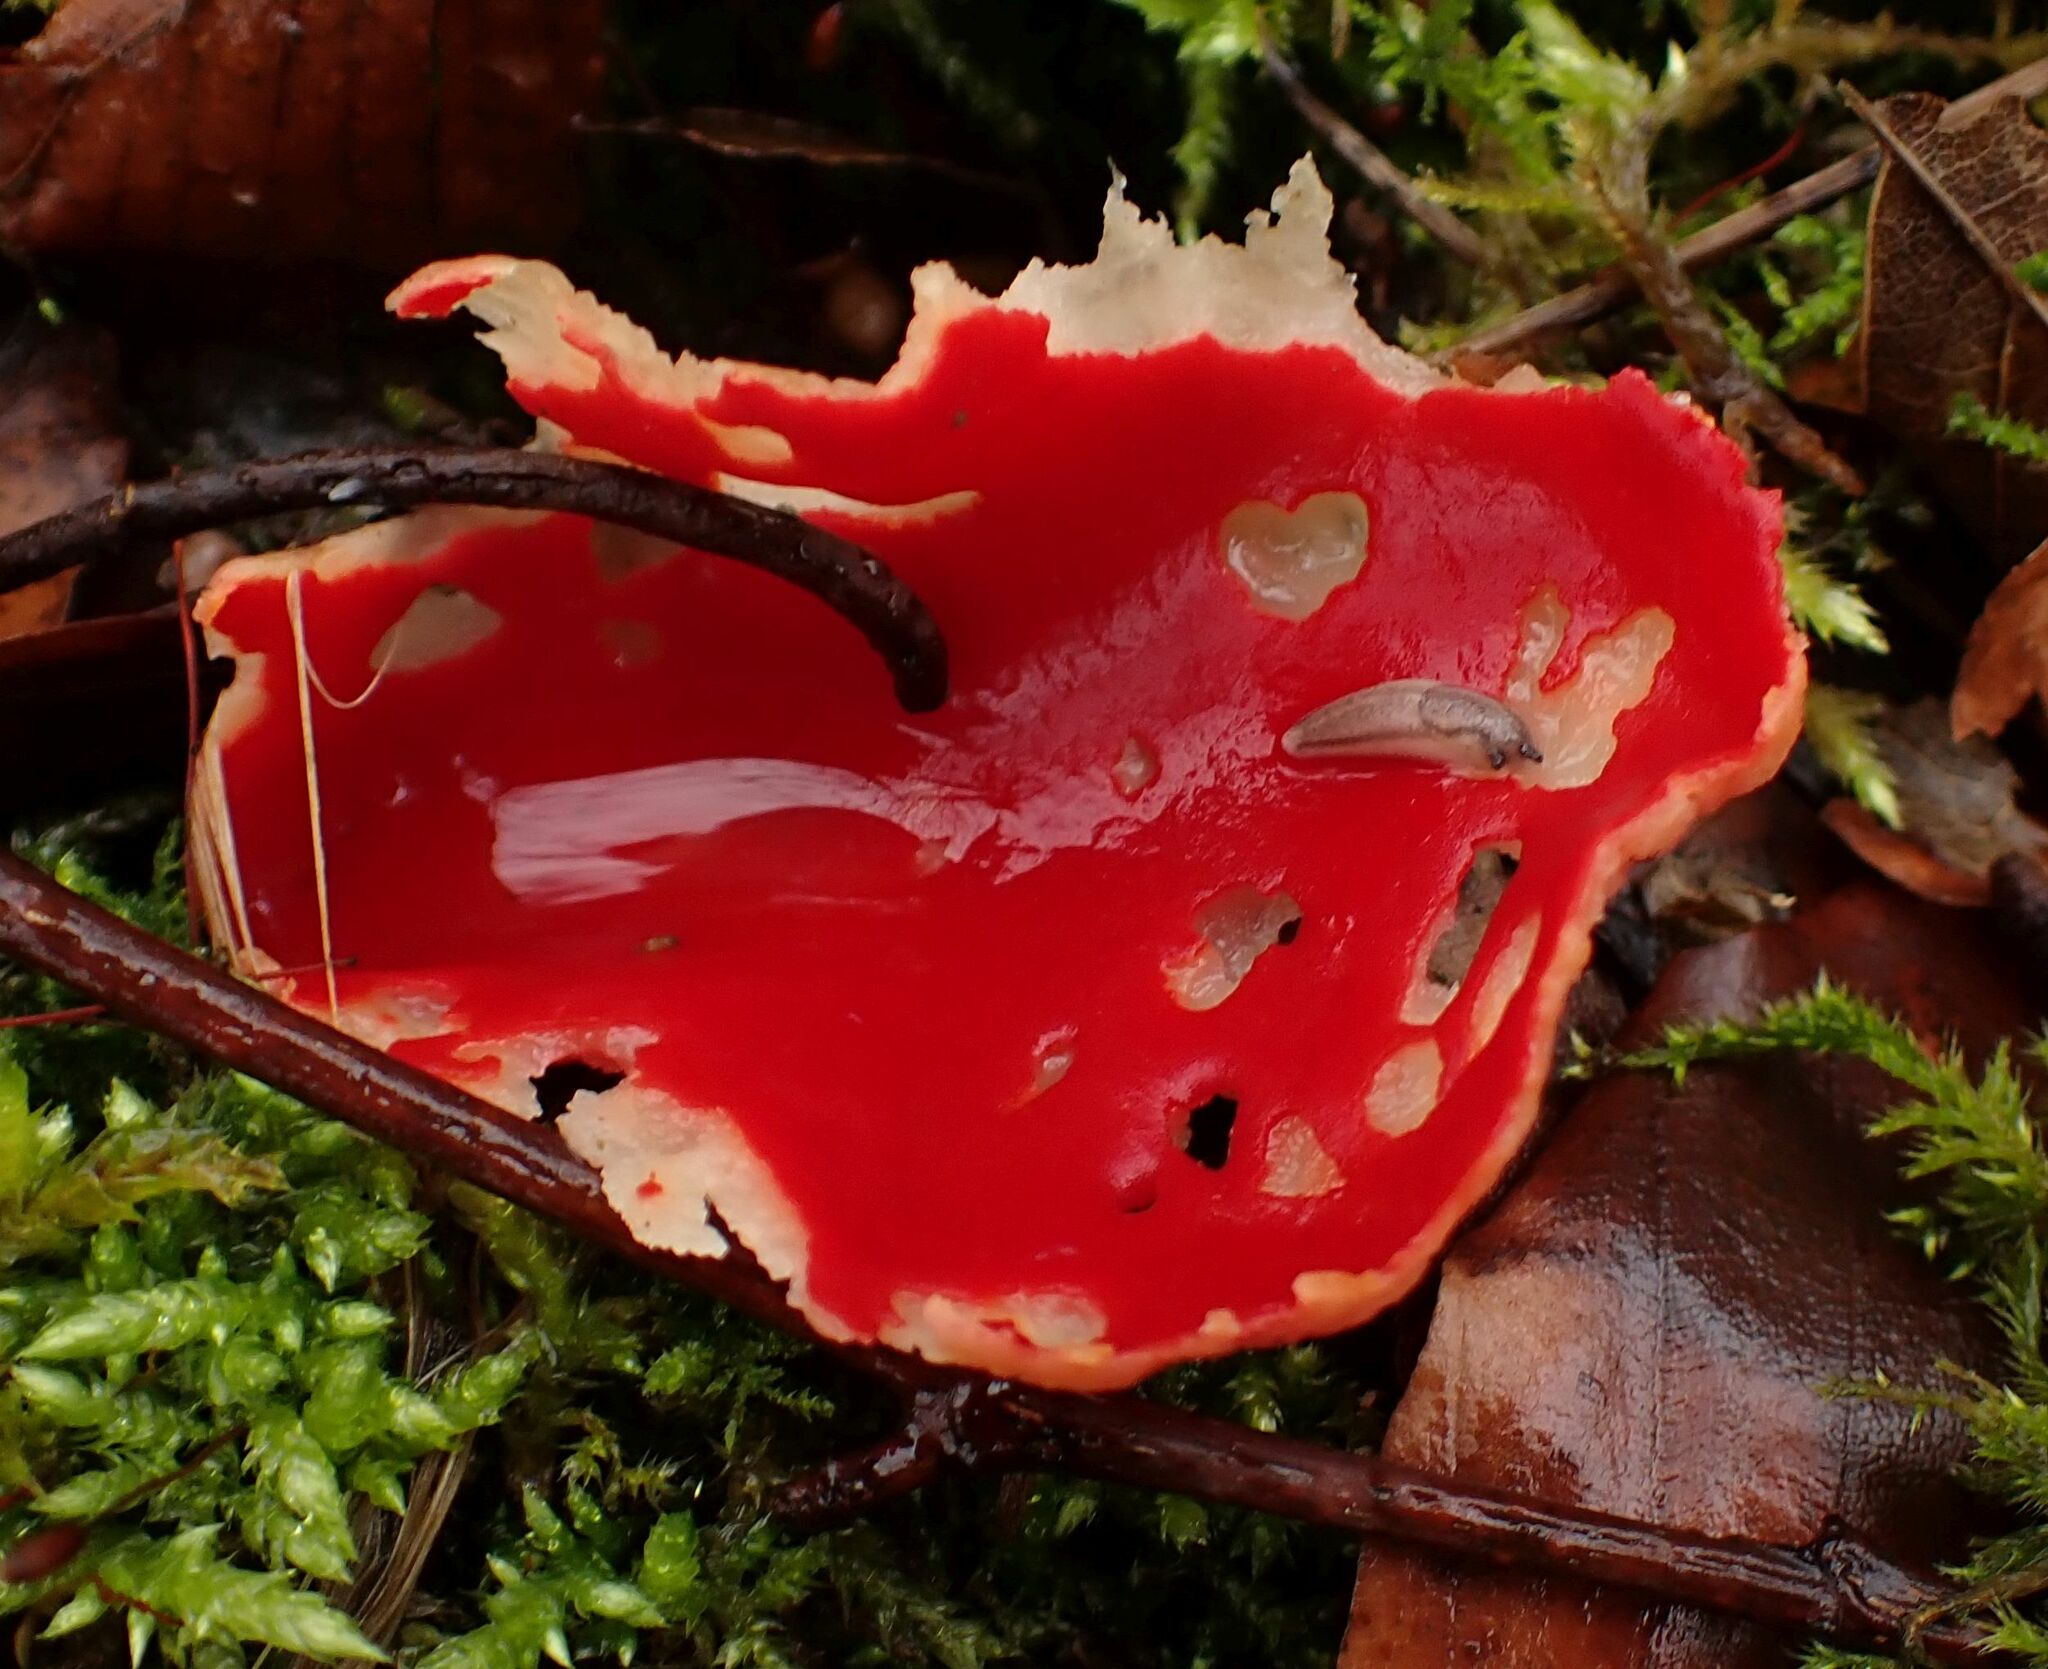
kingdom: Fungi
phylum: Ascomycota
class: Pezizomycetes
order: Pezizales
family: Sarcoscyphaceae
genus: Sarcoscypha
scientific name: Sarcoscypha
